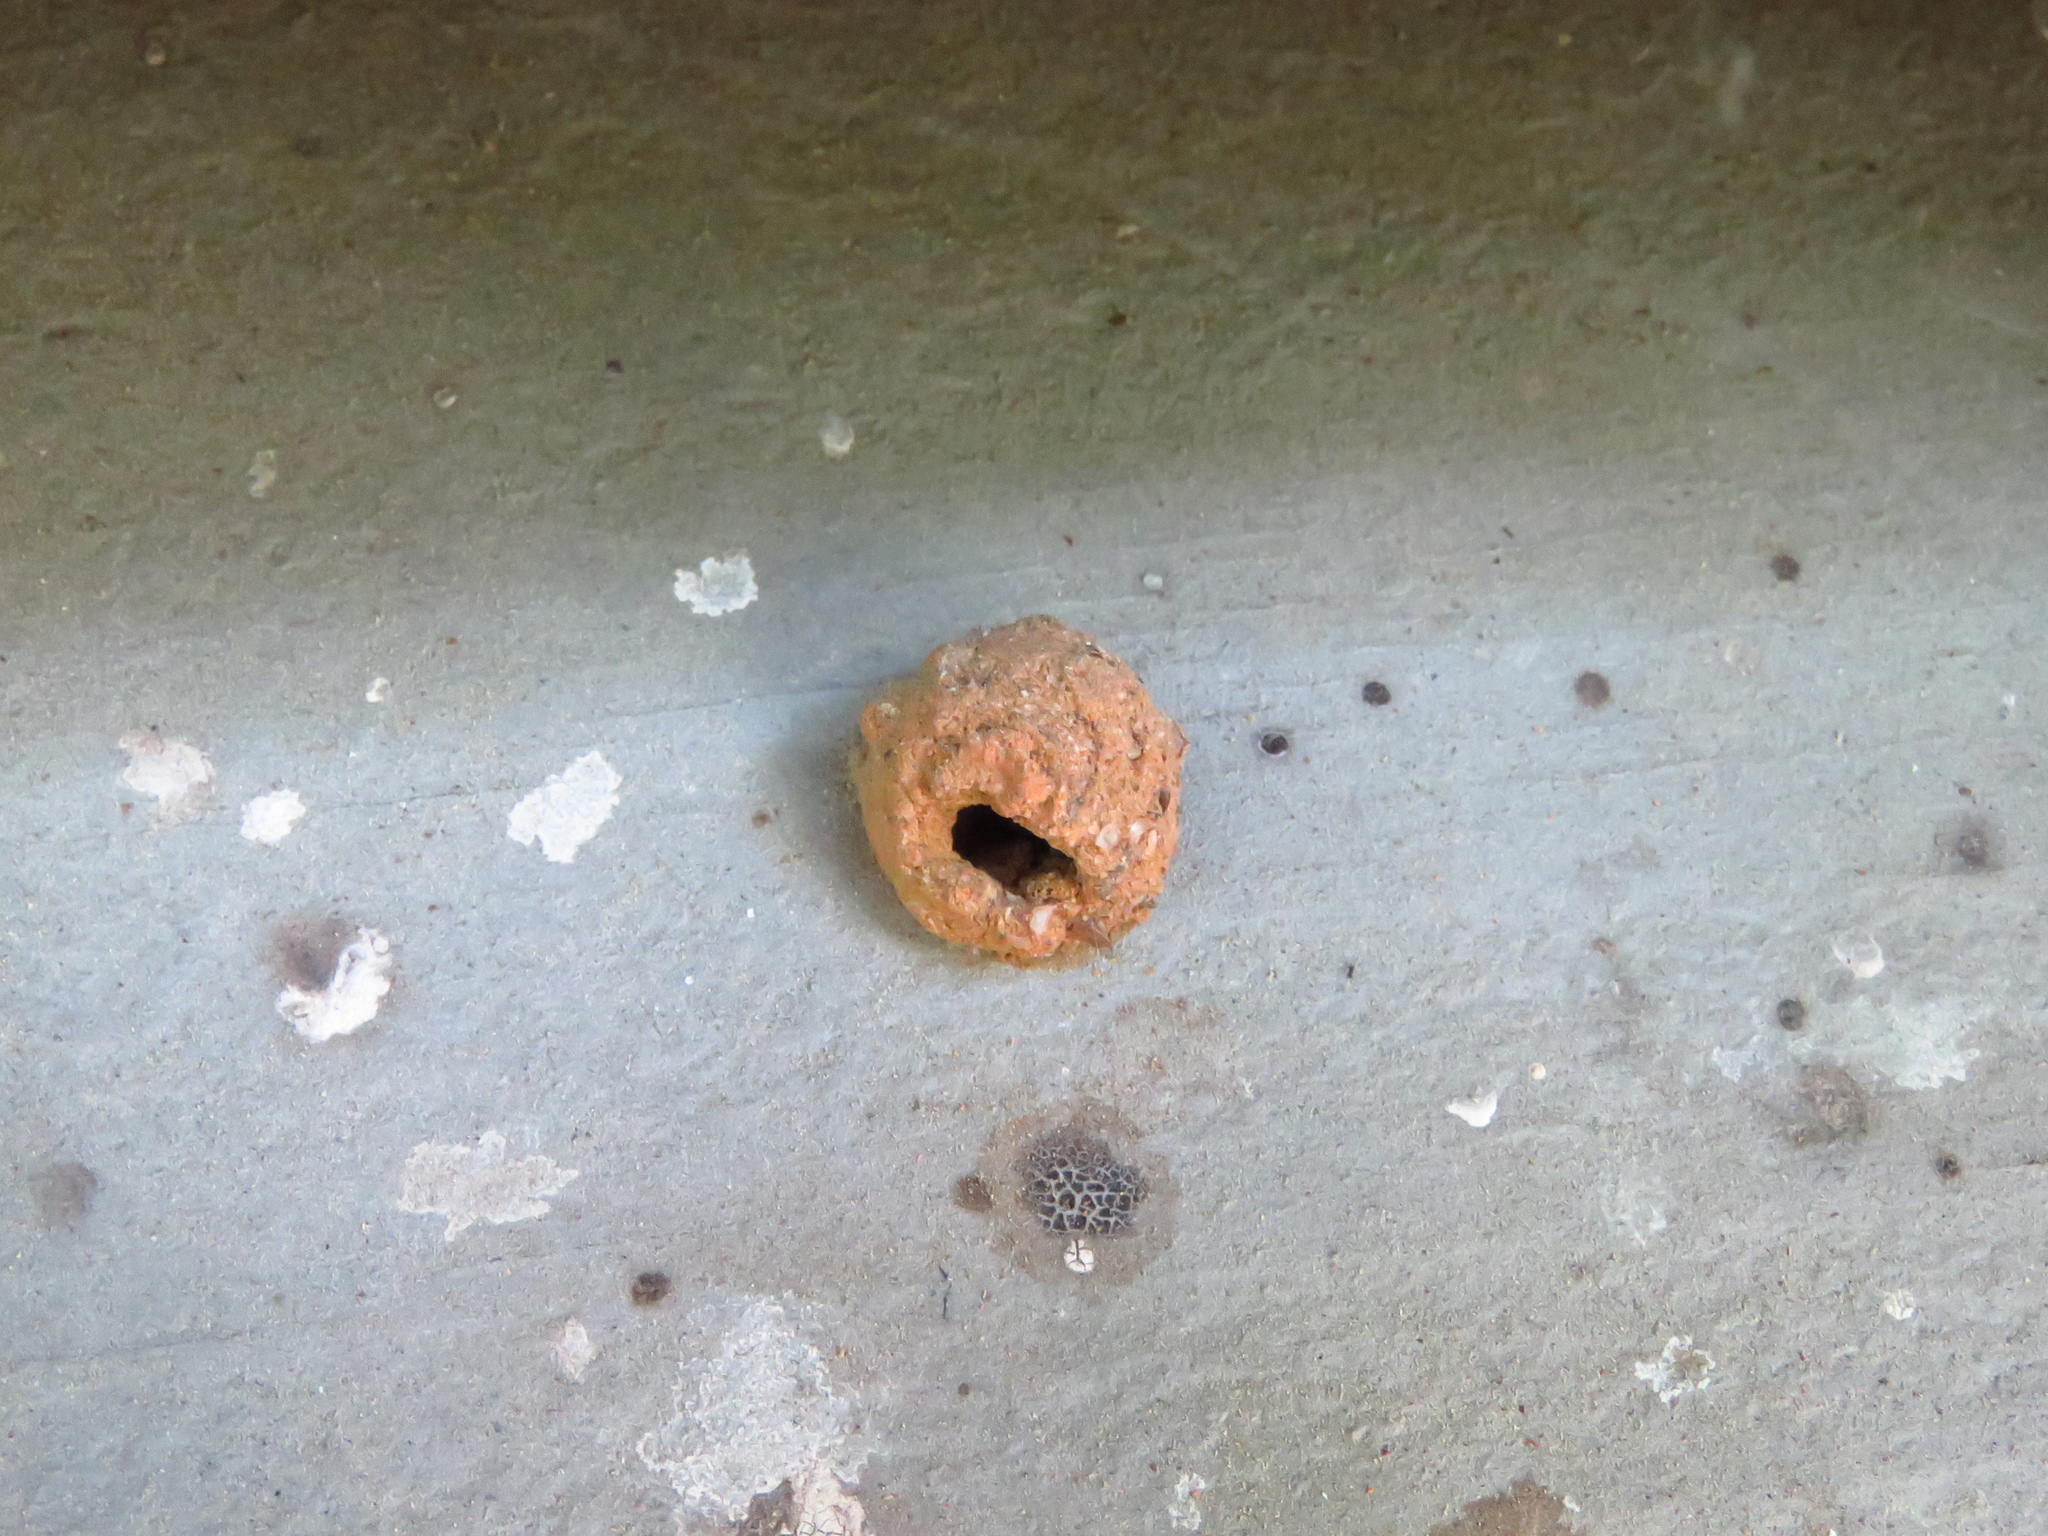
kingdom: Animalia
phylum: Arthropoda
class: Insecta
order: Hymenoptera
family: Vespidae
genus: Eumenes
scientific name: Eumenes
